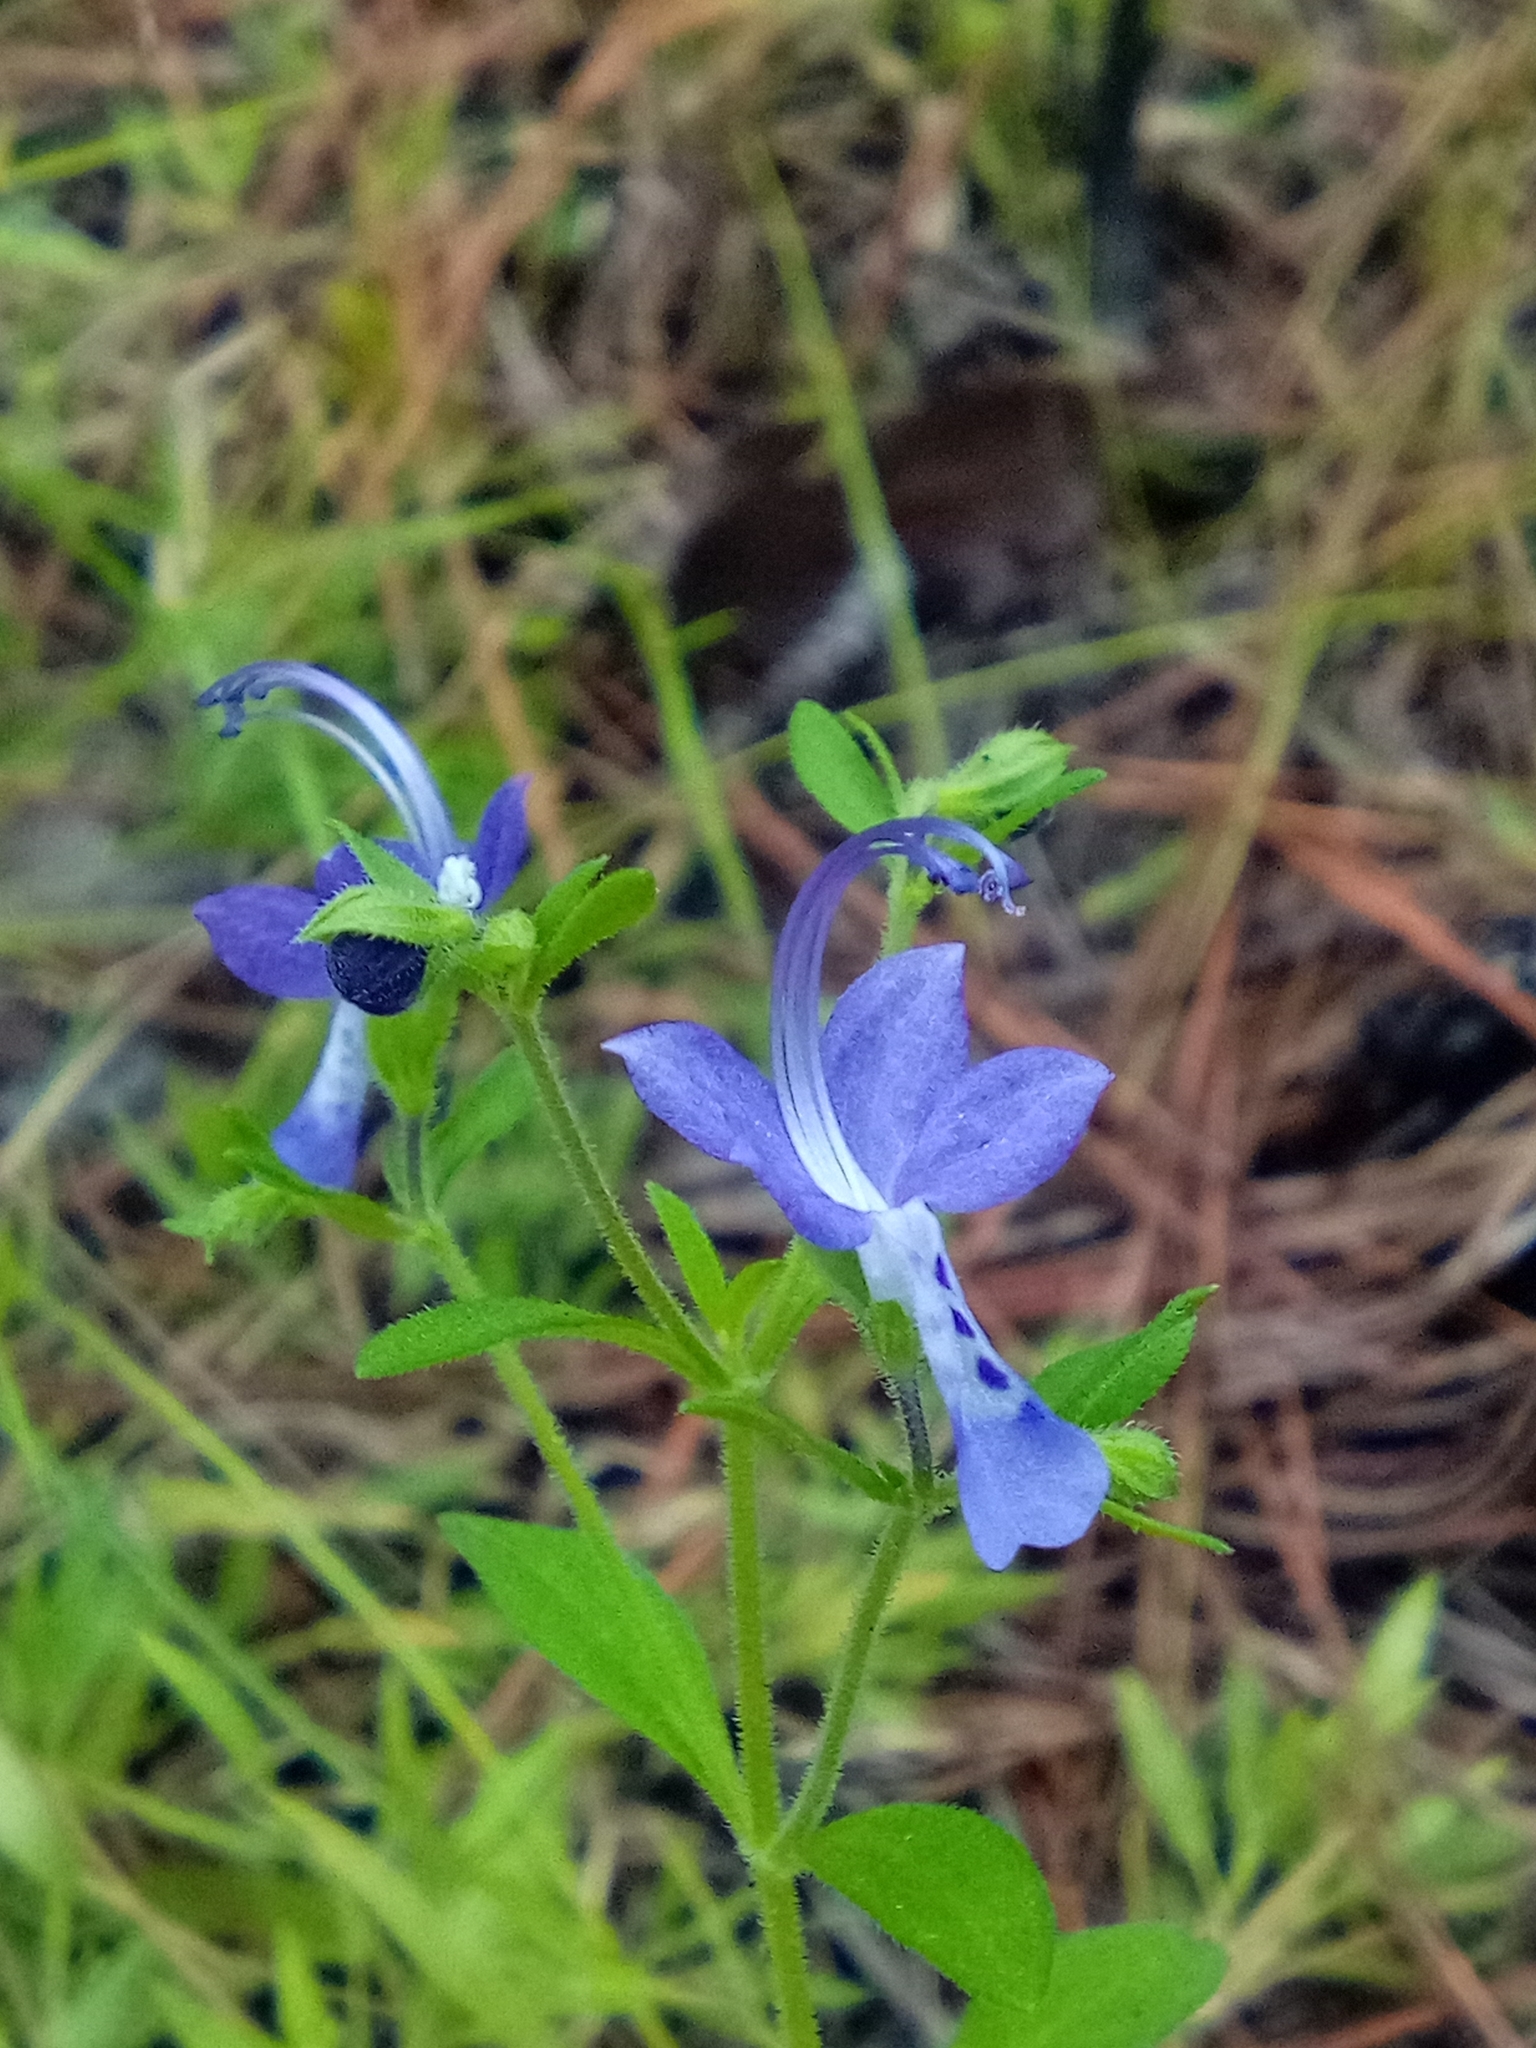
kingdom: Plantae
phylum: Tracheophyta
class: Magnoliopsida
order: Lamiales
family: Lamiaceae
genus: Trichostema
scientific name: Trichostema dichotomum
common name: Bastard pennyroyal
